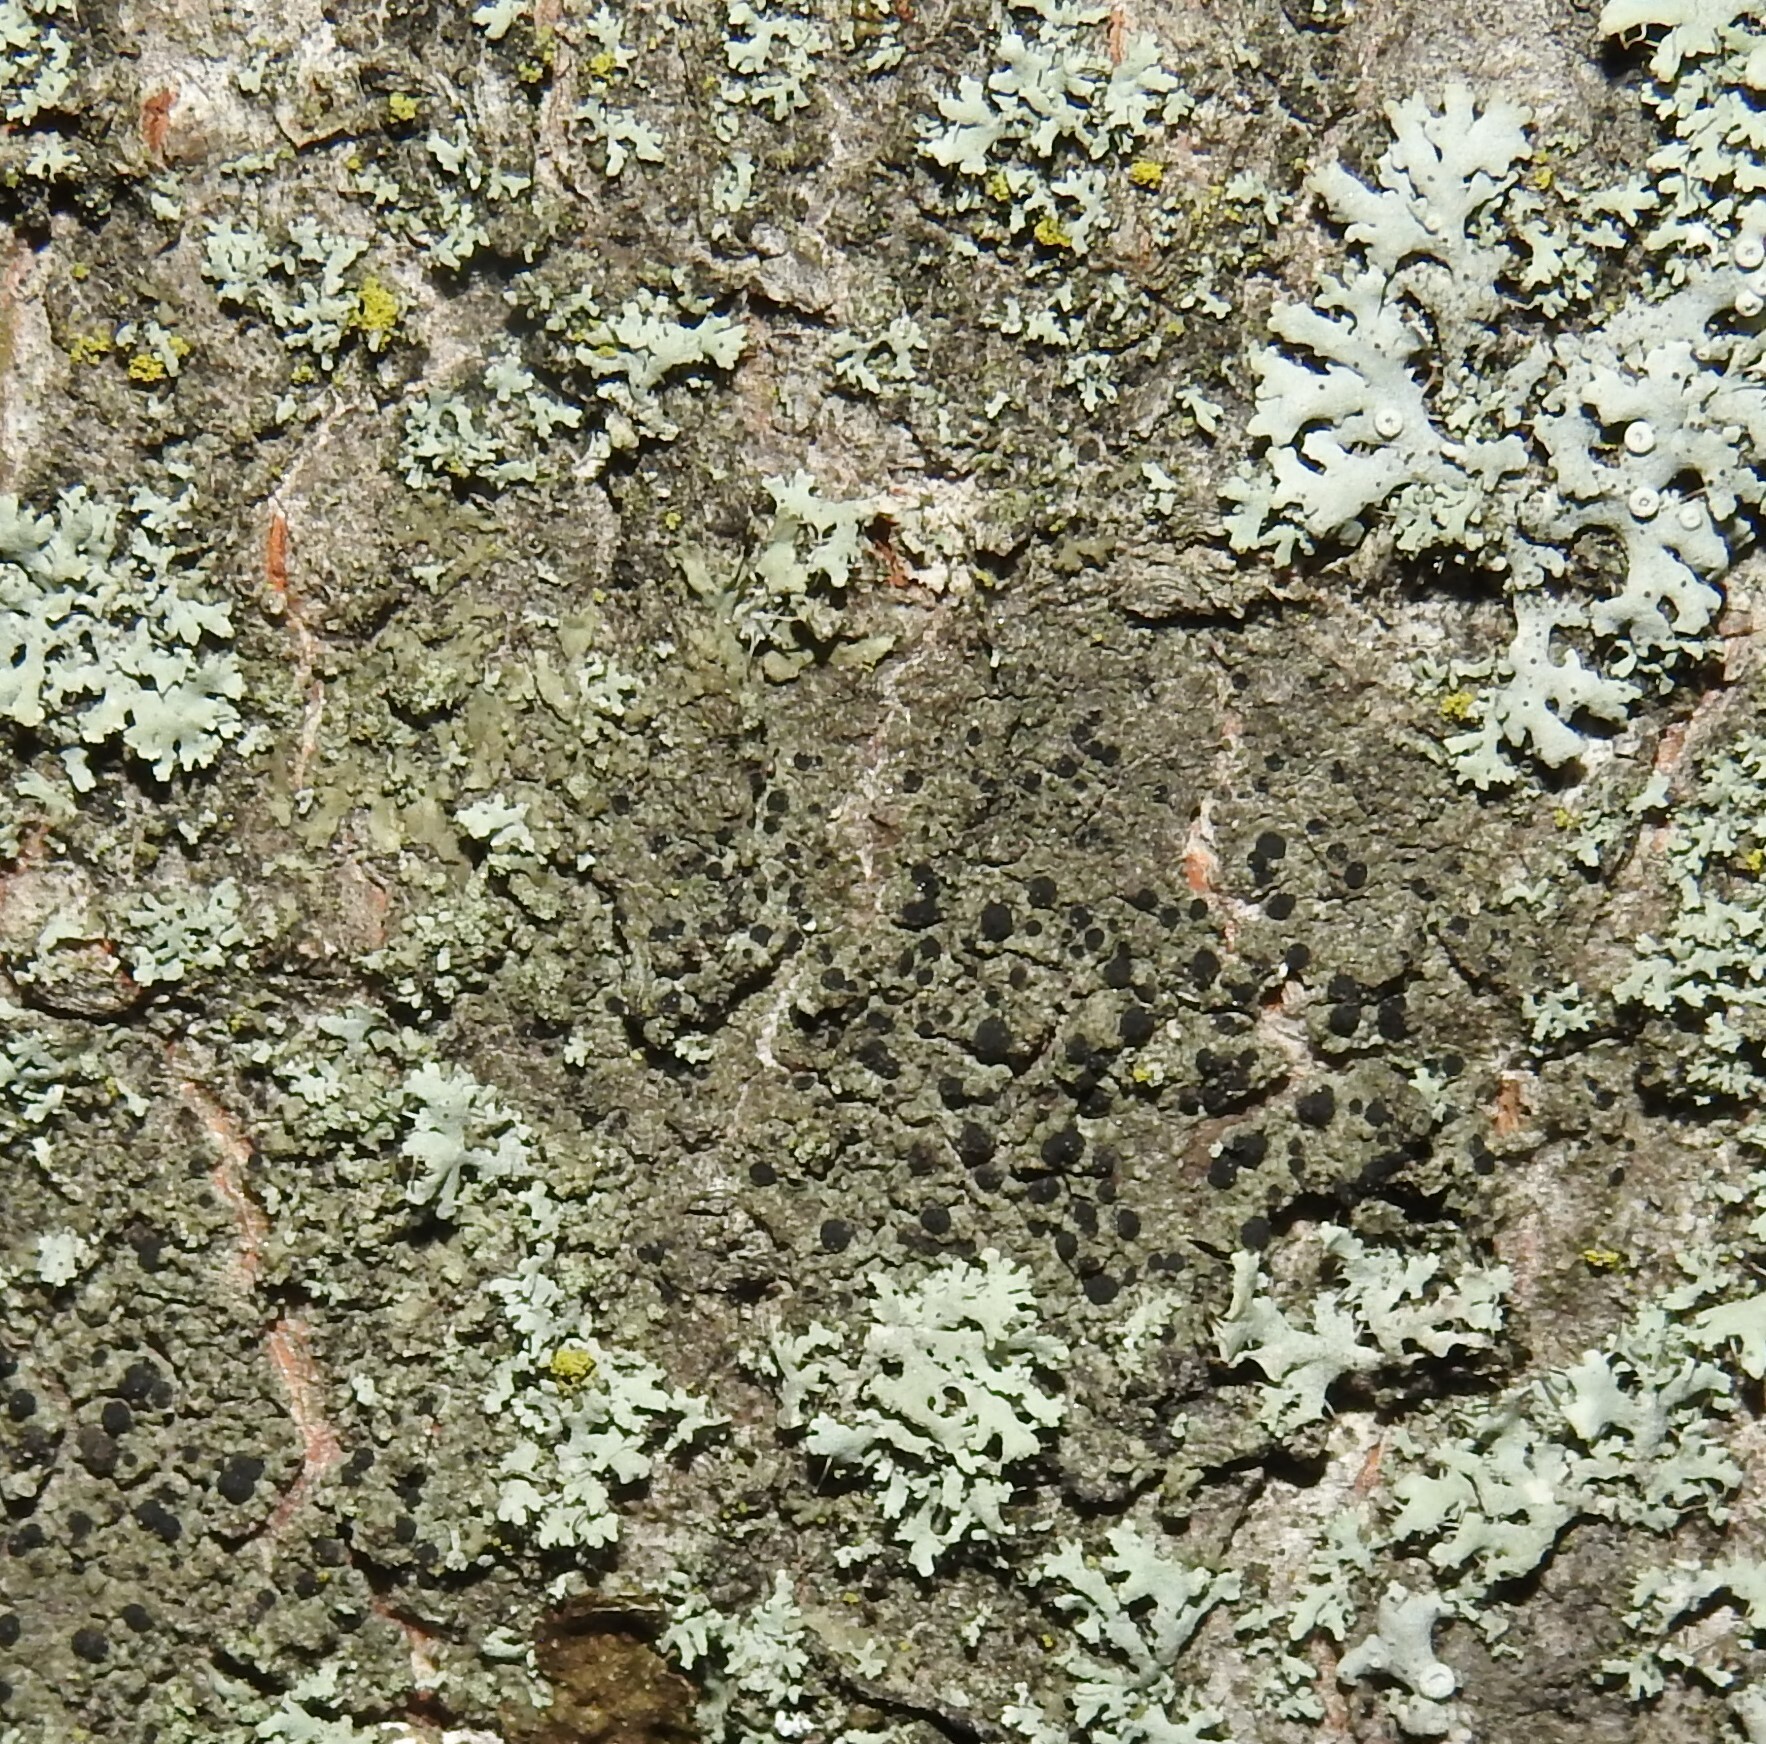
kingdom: Fungi
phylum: Ascomycota
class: Lecanoromycetes
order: Lecanorales
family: Lecanoraceae
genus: Lecidella
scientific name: Lecidella elaeochroma
